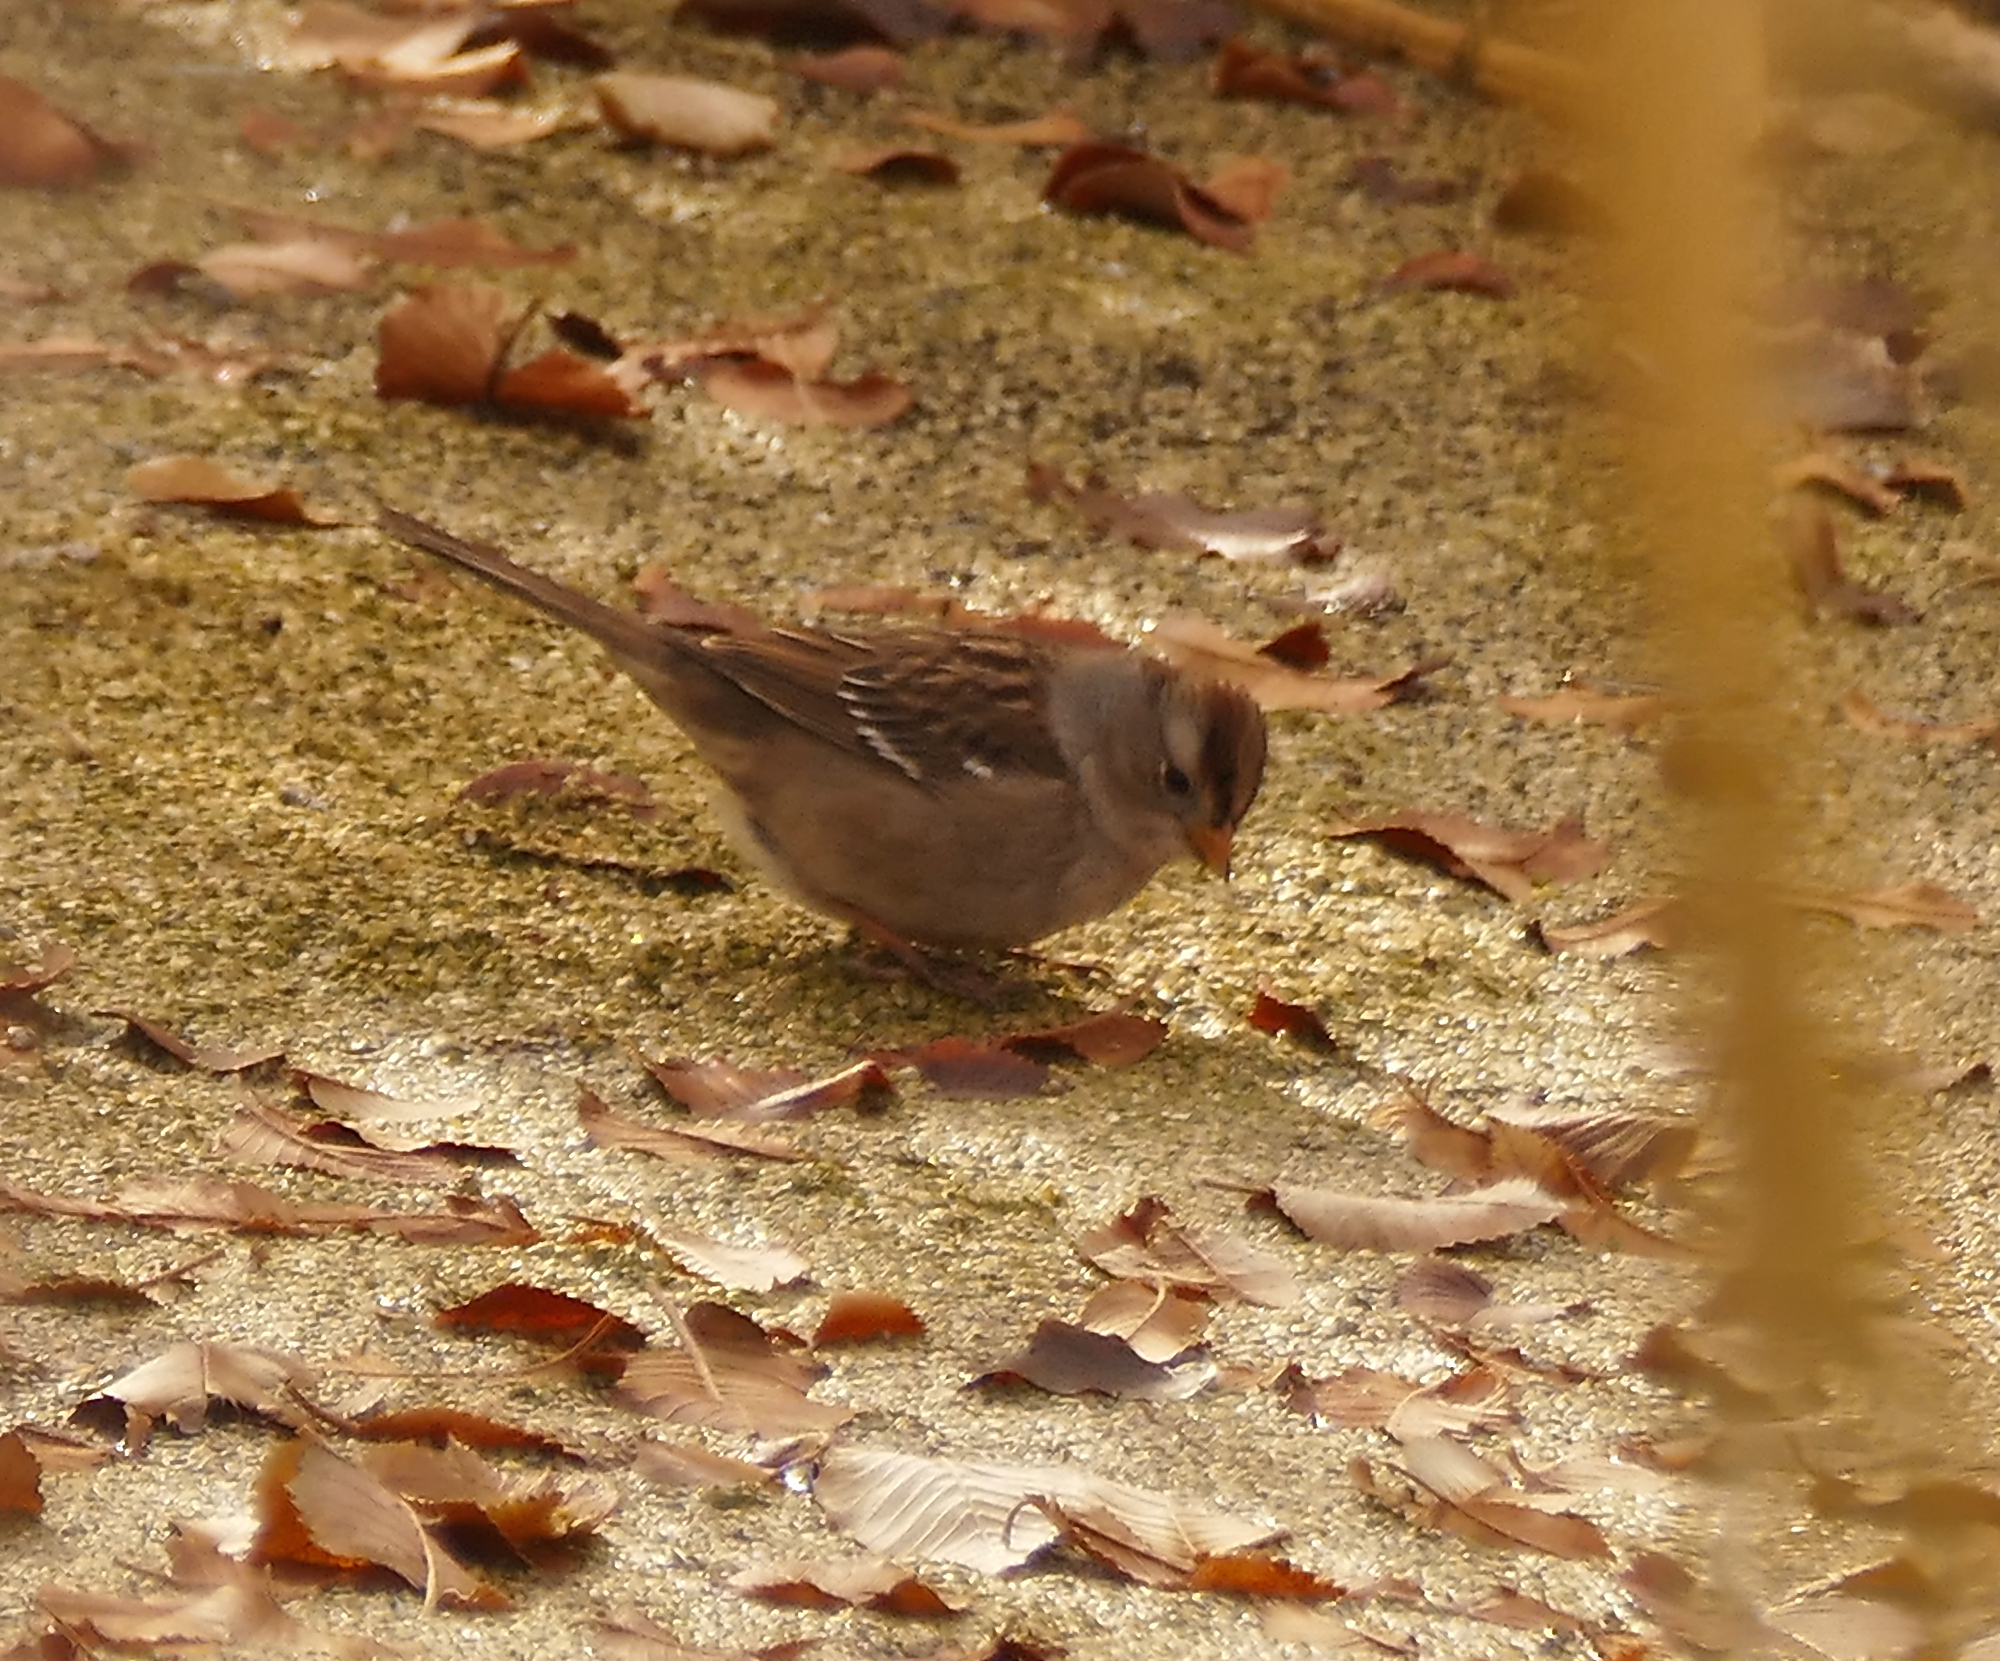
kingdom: Animalia
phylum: Chordata
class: Aves
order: Passeriformes
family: Passerellidae
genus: Zonotrichia
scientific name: Zonotrichia leucophrys
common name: White-crowned sparrow
